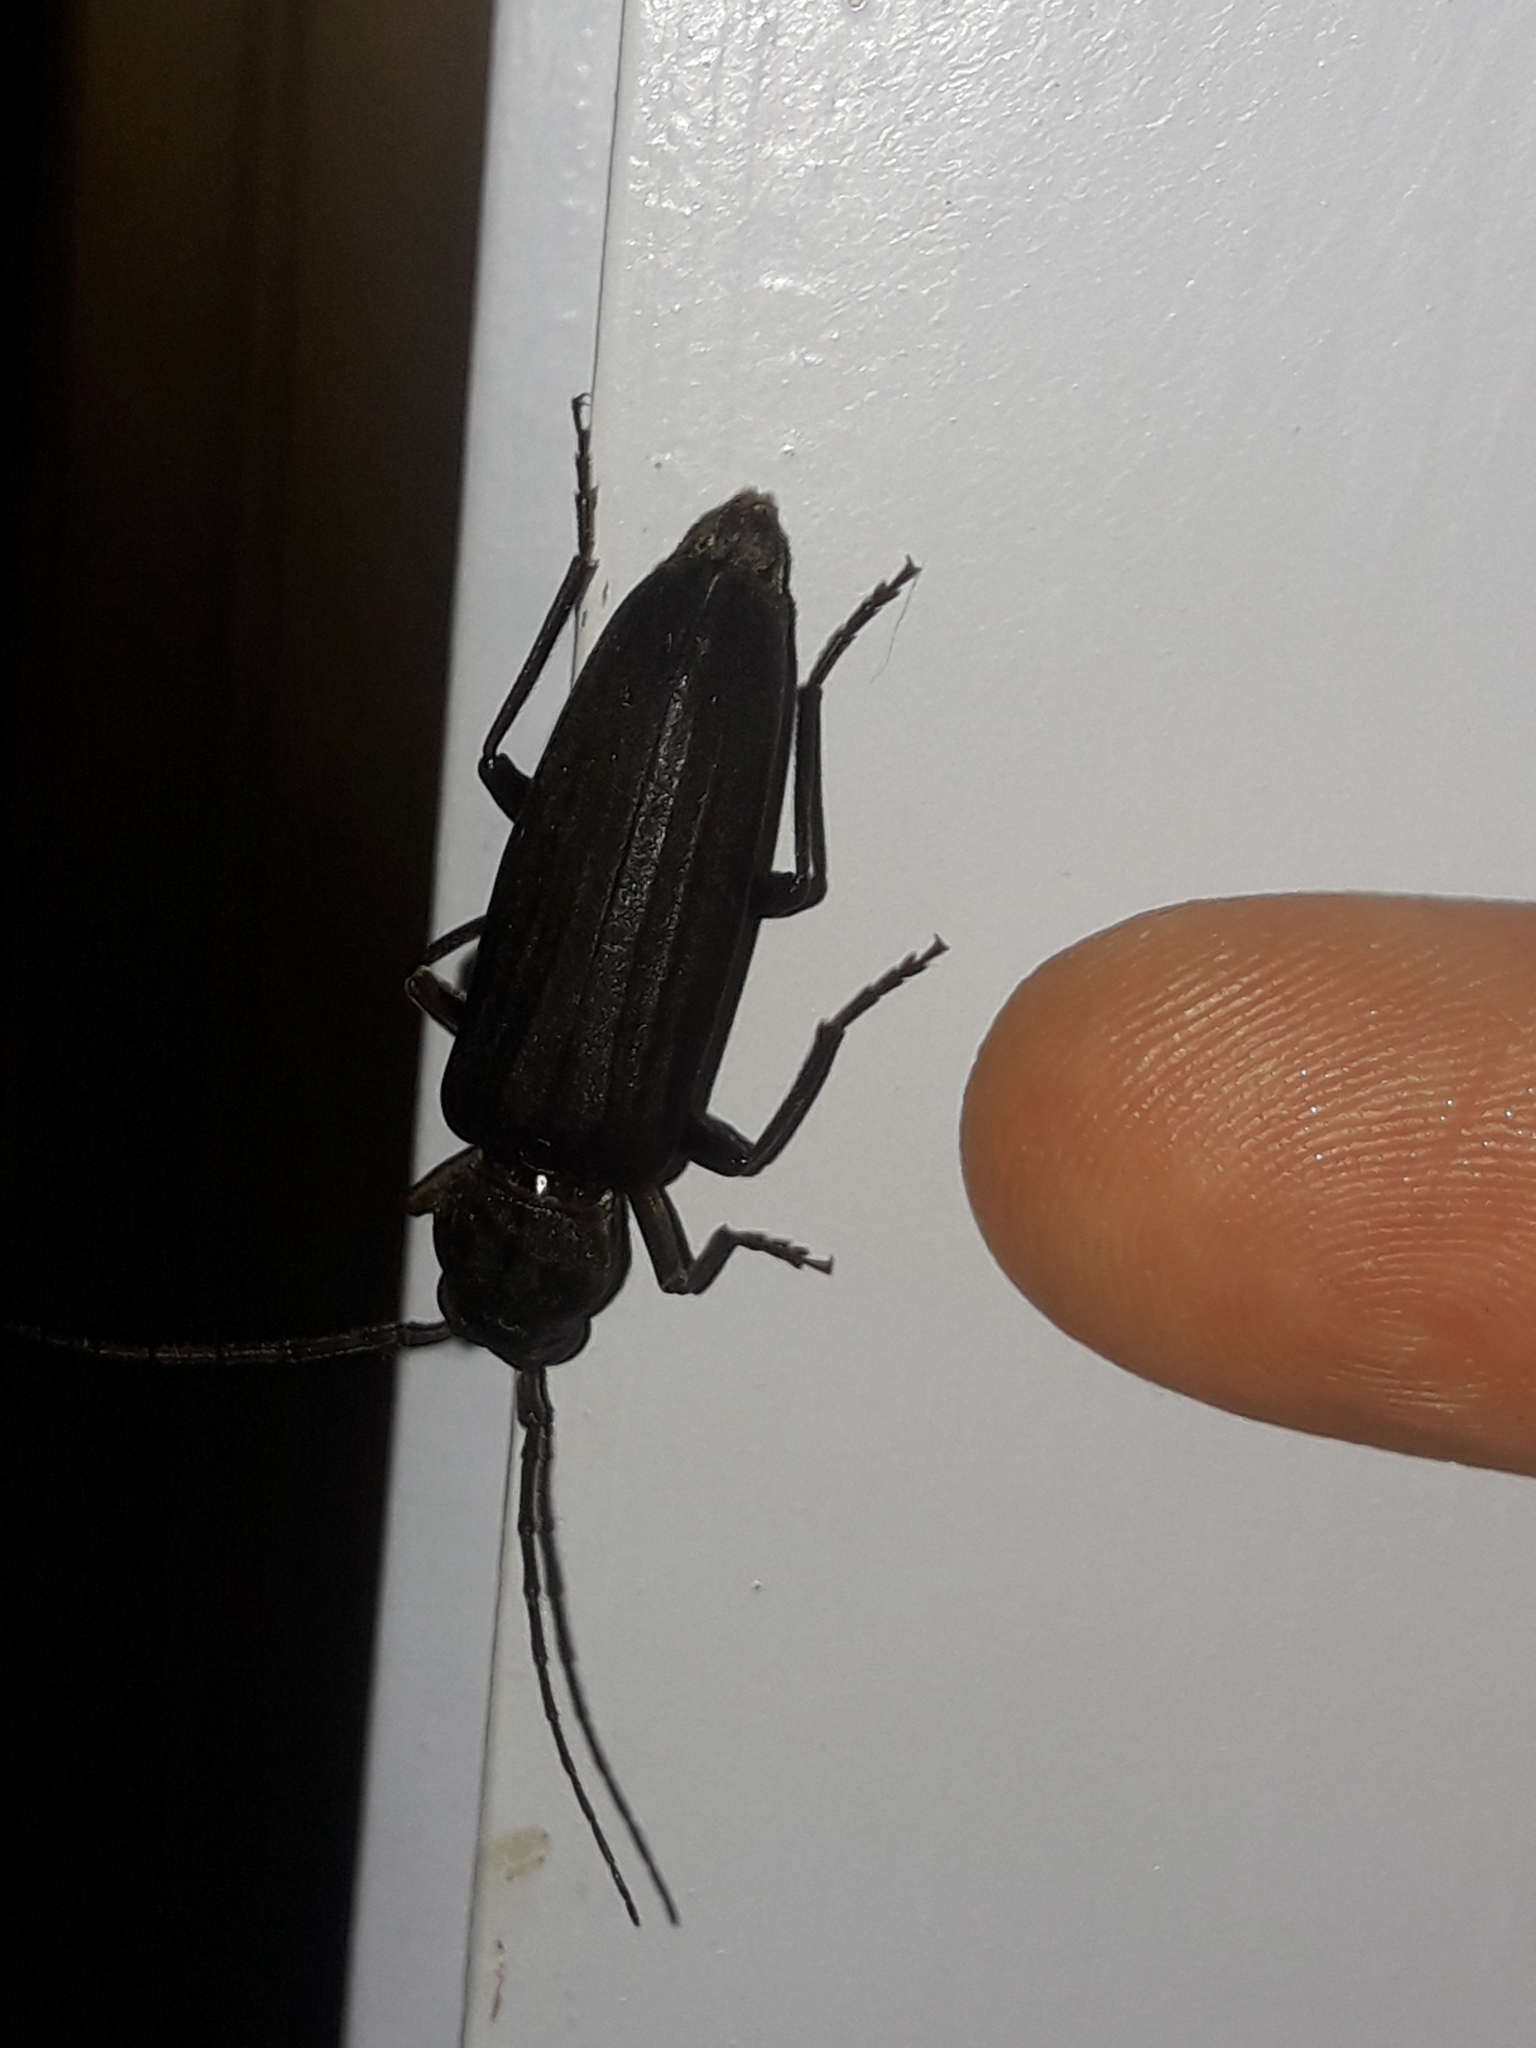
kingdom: Animalia
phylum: Arthropoda
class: Insecta
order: Coleoptera
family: Cerambycidae
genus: Arhopalus
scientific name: Arhopalus ferus
